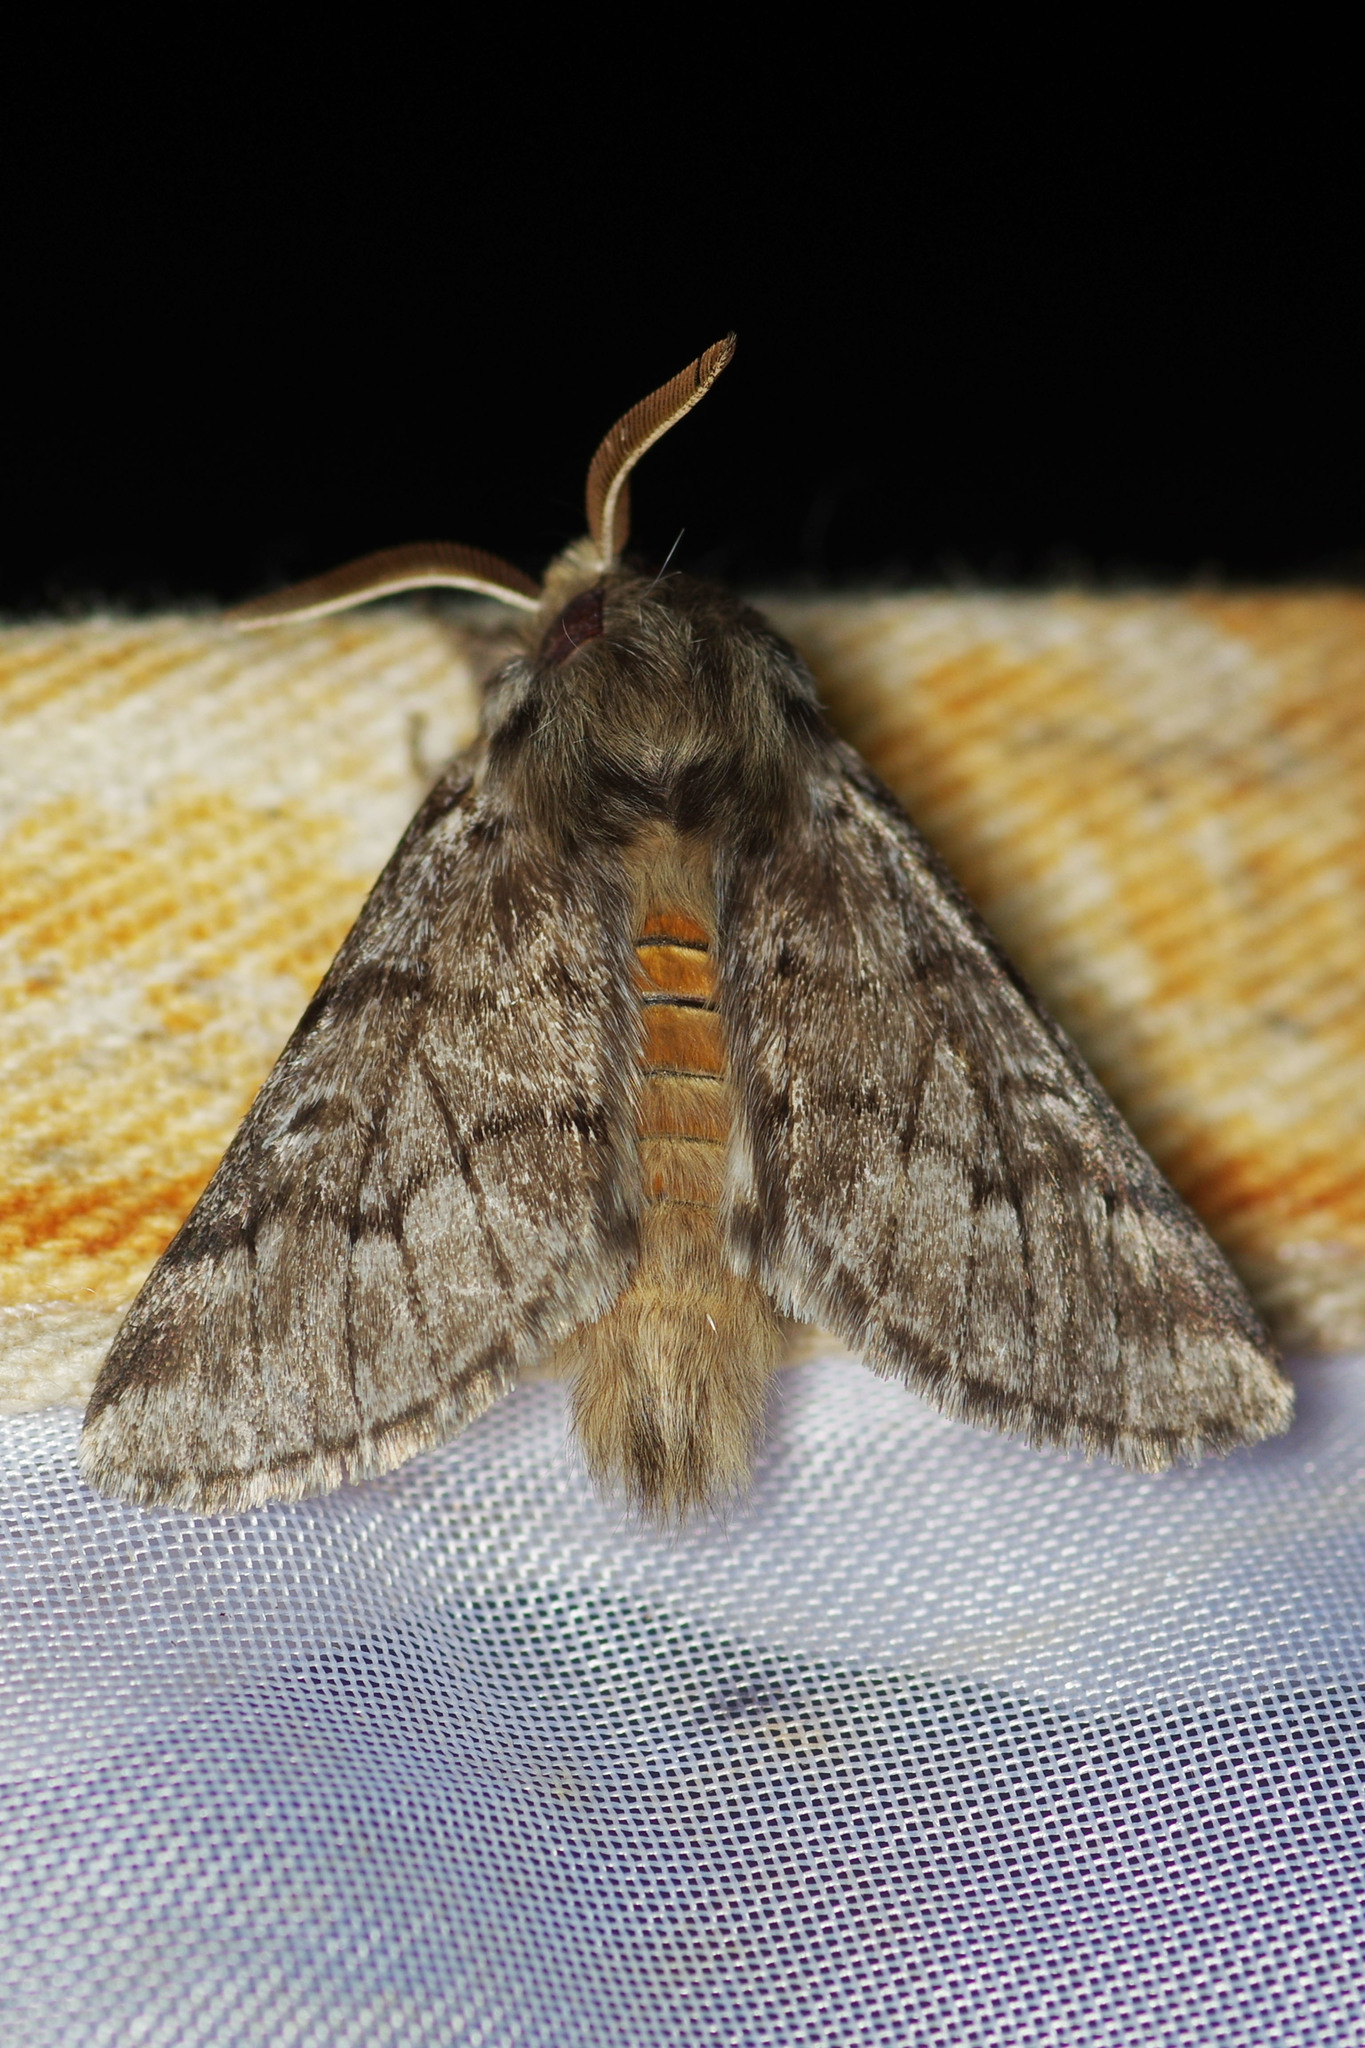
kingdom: Animalia
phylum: Arthropoda
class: Insecta
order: Lepidoptera
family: Notodontidae
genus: Thaumetopoea
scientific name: Thaumetopoea pityocampa
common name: Pine processionary
